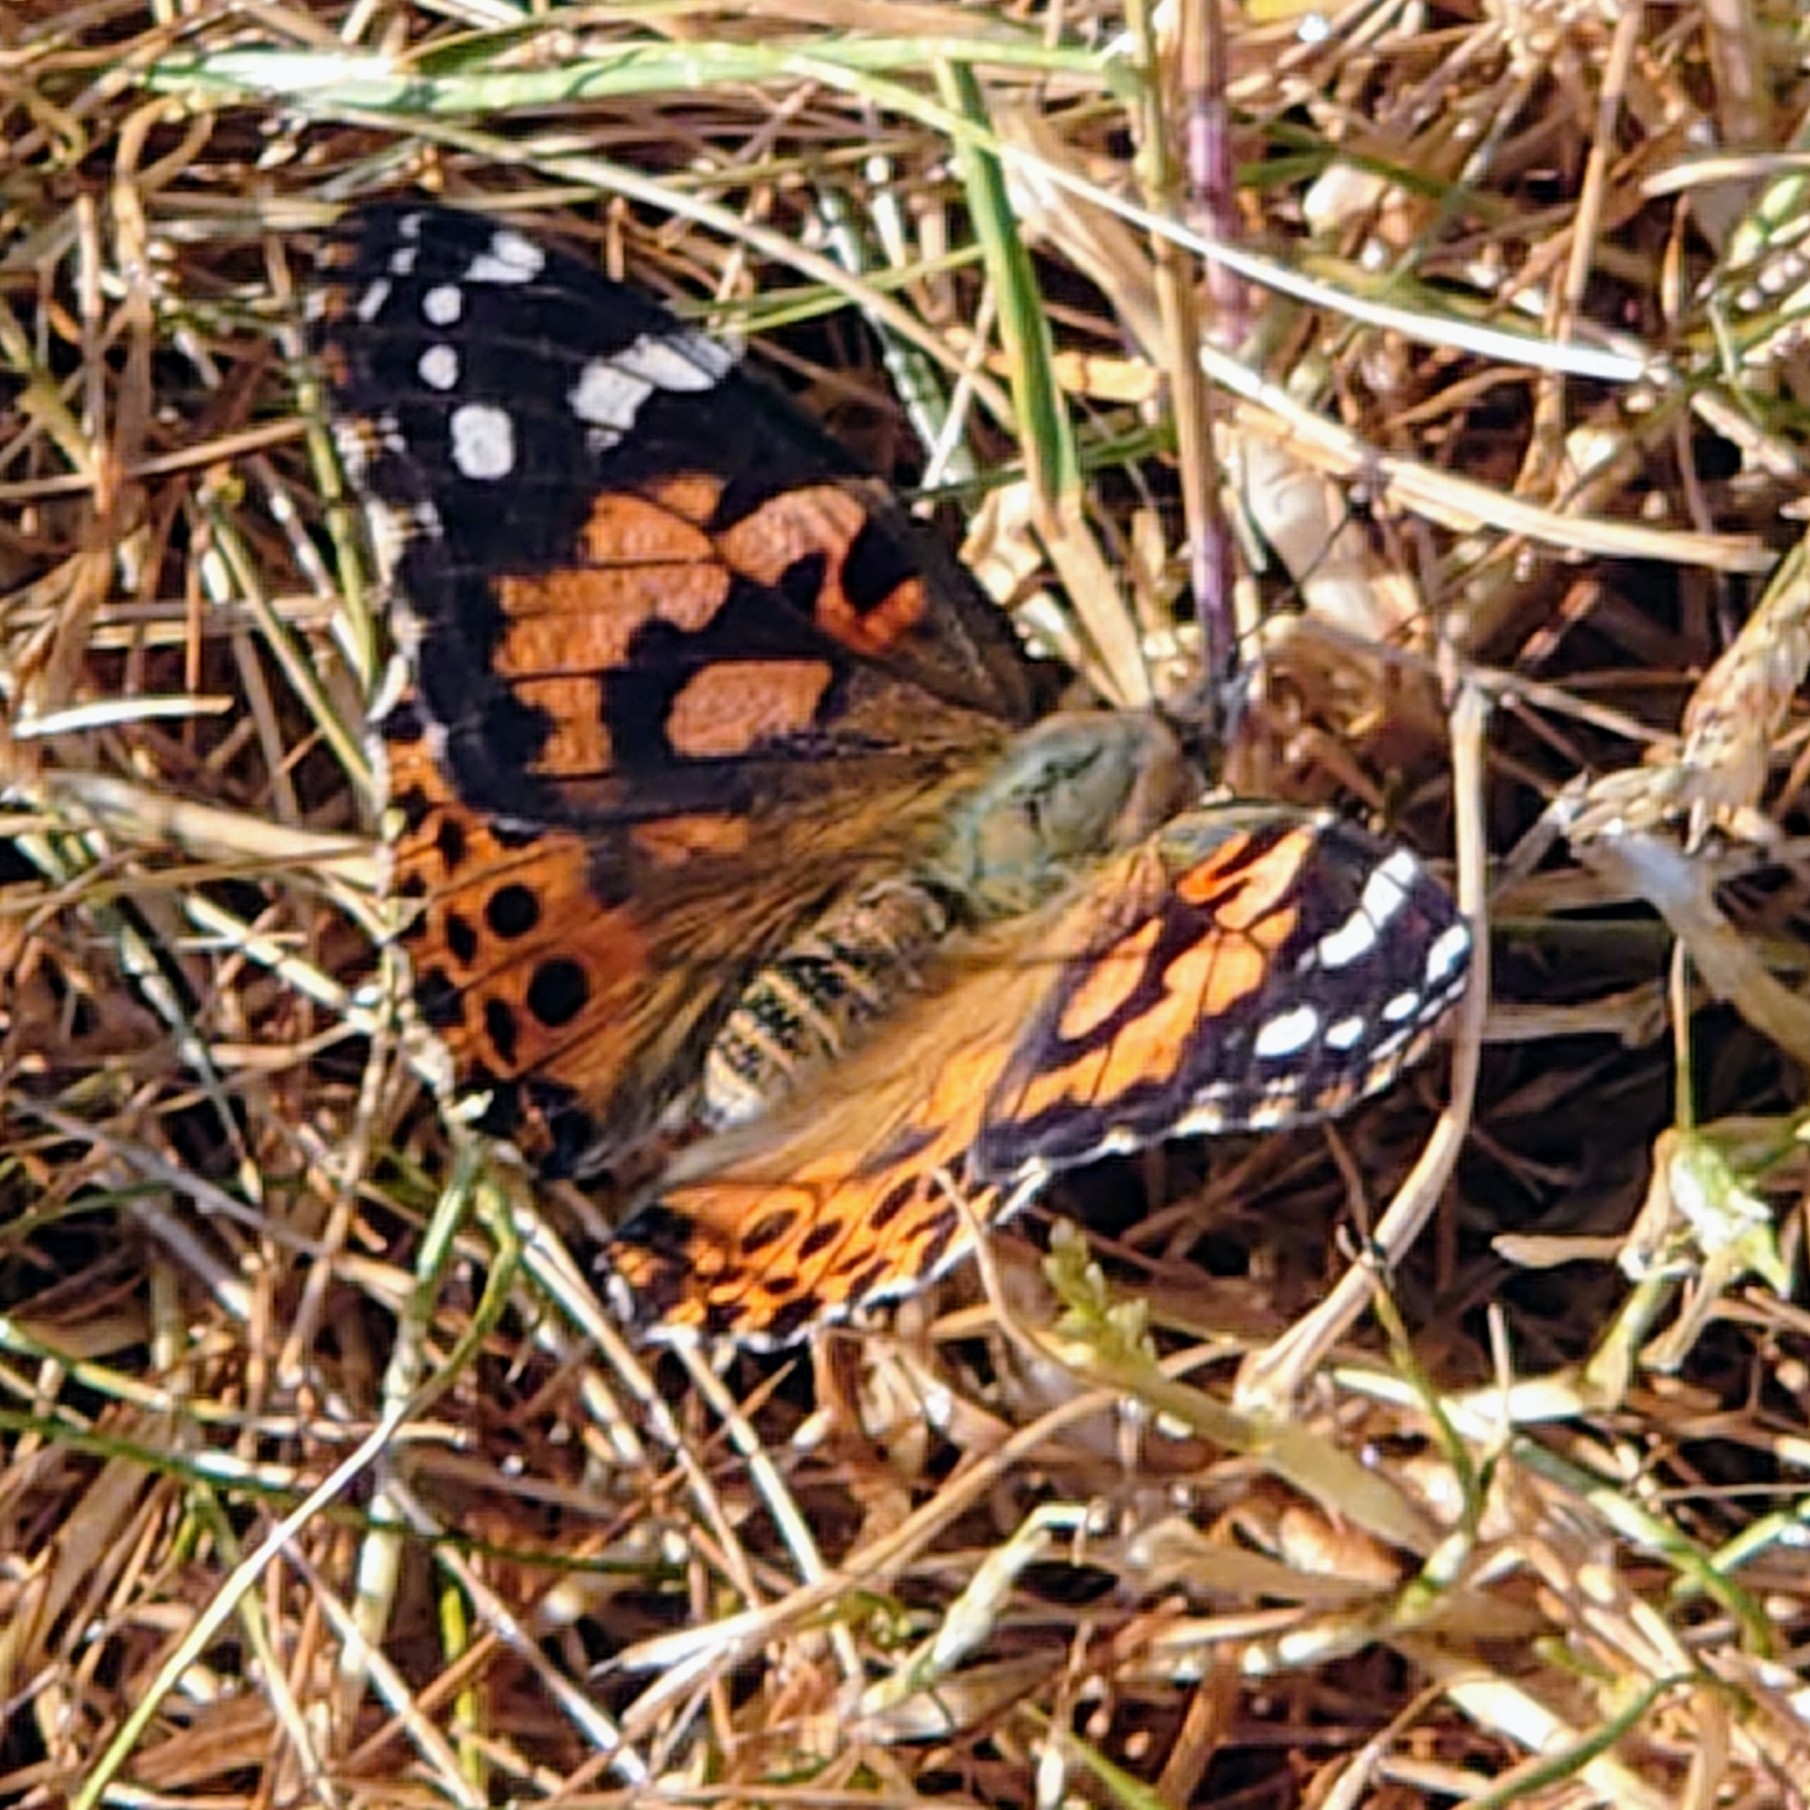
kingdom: Animalia
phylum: Arthropoda
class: Insecta
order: Lepidoptera
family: Nymphalidae
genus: Vanessa
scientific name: Vanessa cardui
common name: Painted lady
